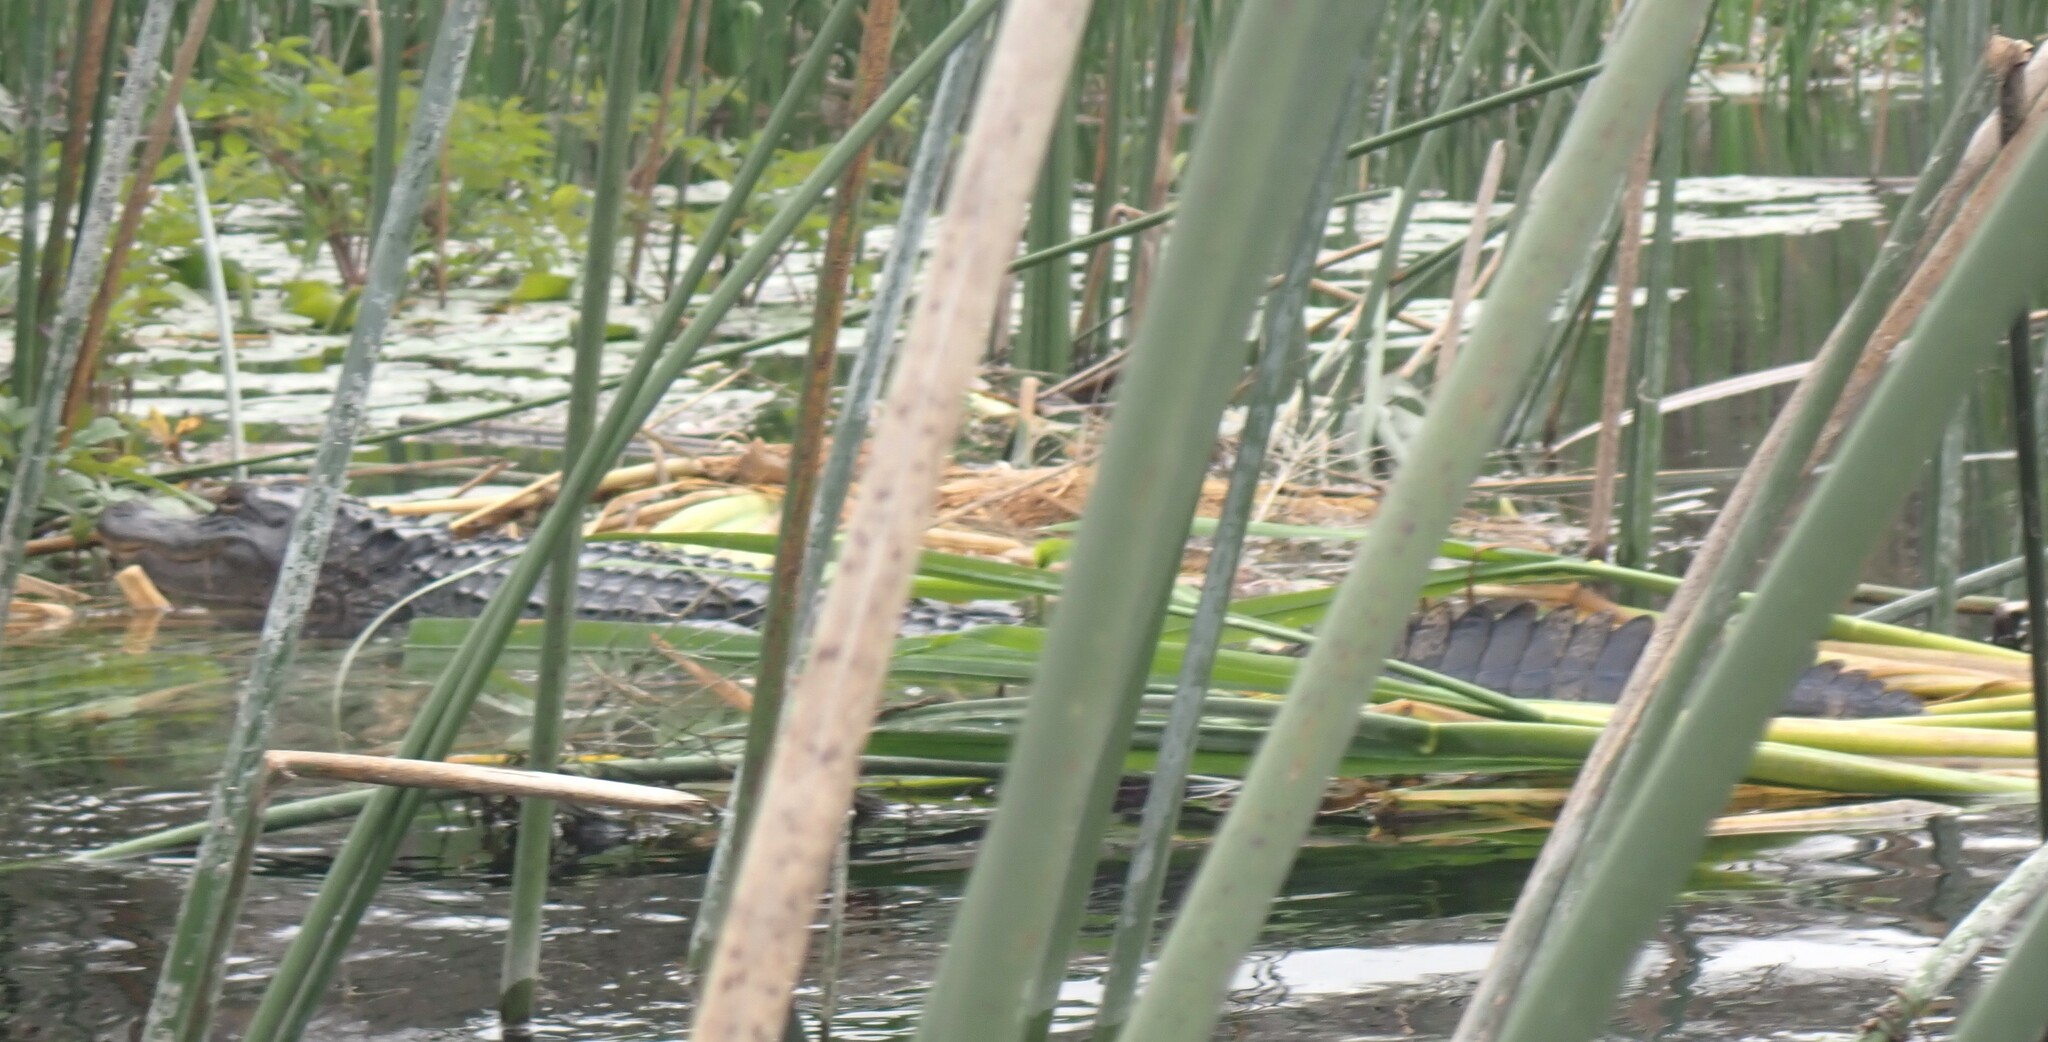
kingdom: Animalia
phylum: Chordata
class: Crocodylia
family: Alligatoridae
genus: Alligator
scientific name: Alligator mississippiensis
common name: American alligator
